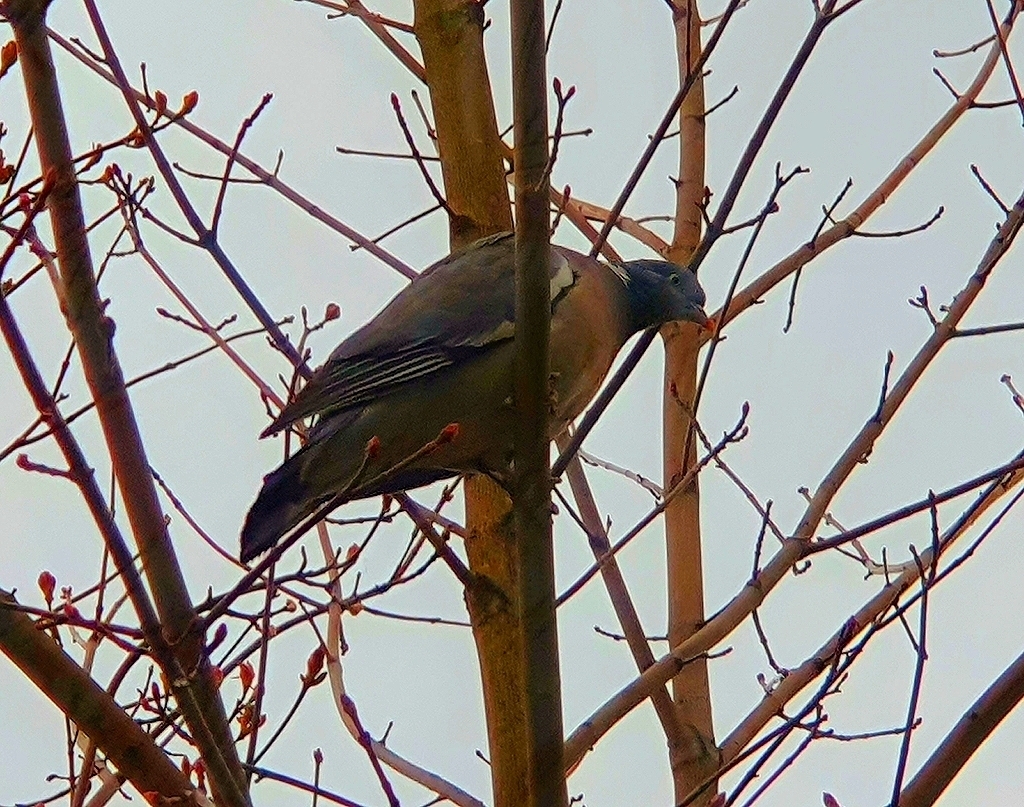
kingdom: Animalia
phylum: Chordata
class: Aves
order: Columbiformes
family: Columbidae
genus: Columba
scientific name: Columba palumbus
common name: Common wood pigeon
